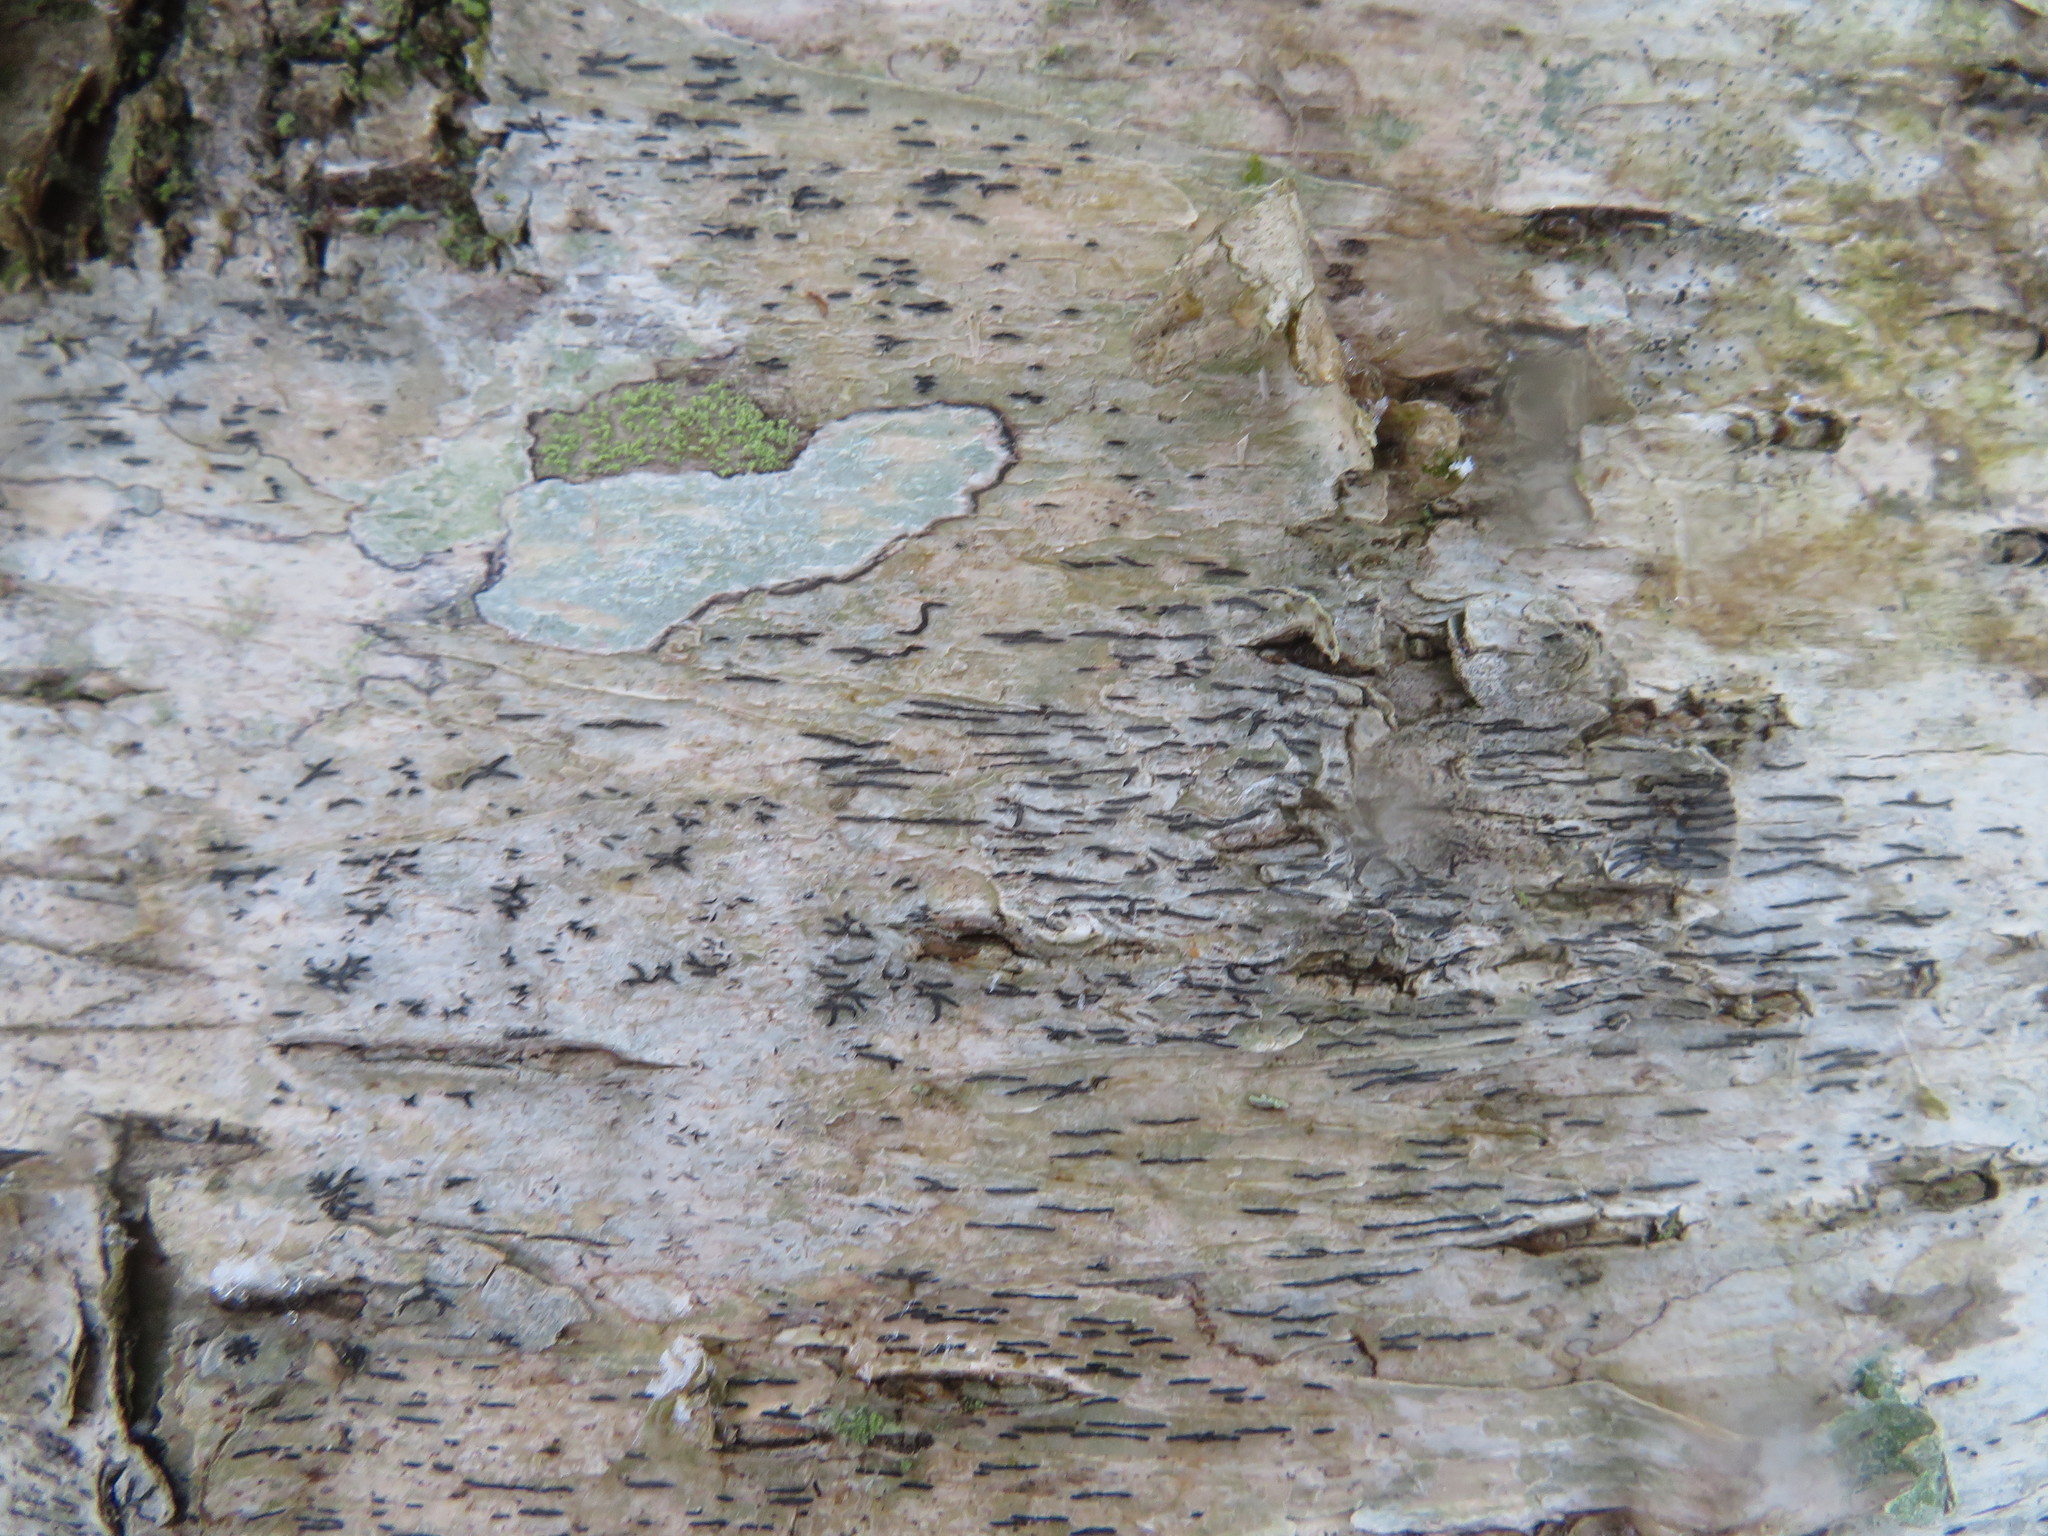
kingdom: Fungi
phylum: Ascomycota
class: Lecanoromycetes
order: Ostropales
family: Graphidaceae
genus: Graphis
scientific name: Graphis scripta
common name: Script lichen
